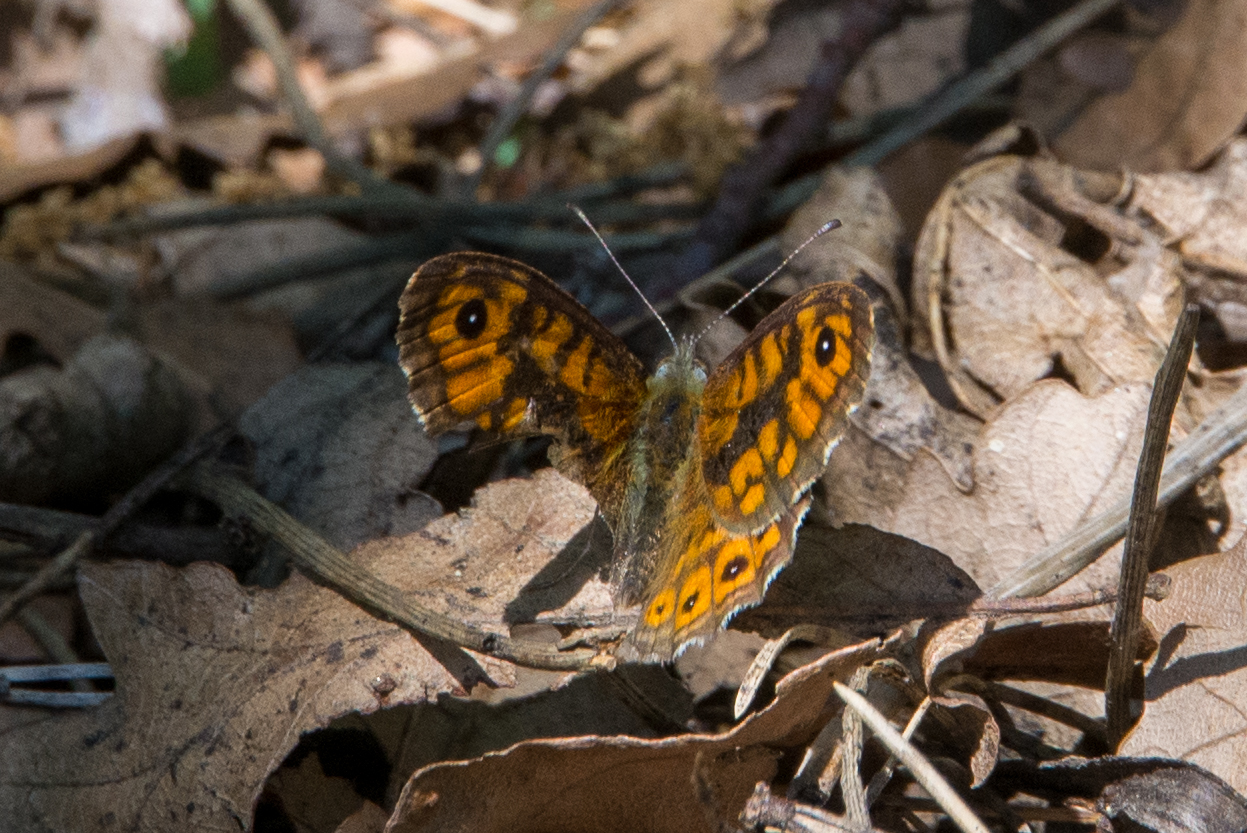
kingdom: Animalia
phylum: Arthropoda
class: Insecta
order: Lepidoptera
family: Nymphalidae
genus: Pararge
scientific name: Pararge Lasiommata megera
